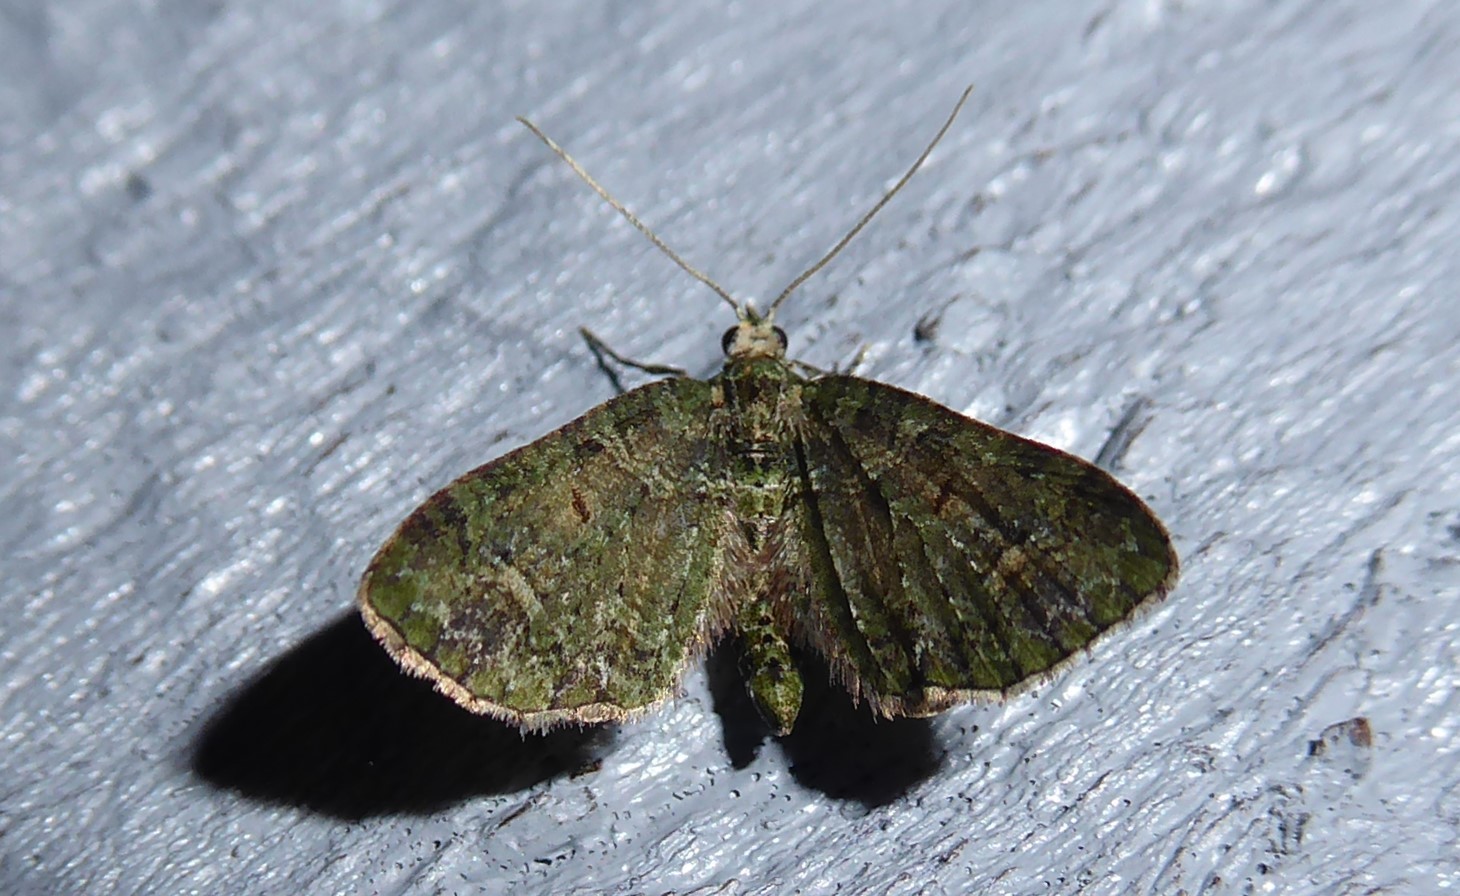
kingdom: Animalia
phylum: Arthropoda
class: Insecta
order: Lepidoptera
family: Geometridae
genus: Idaea
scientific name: Idaea mutanda
